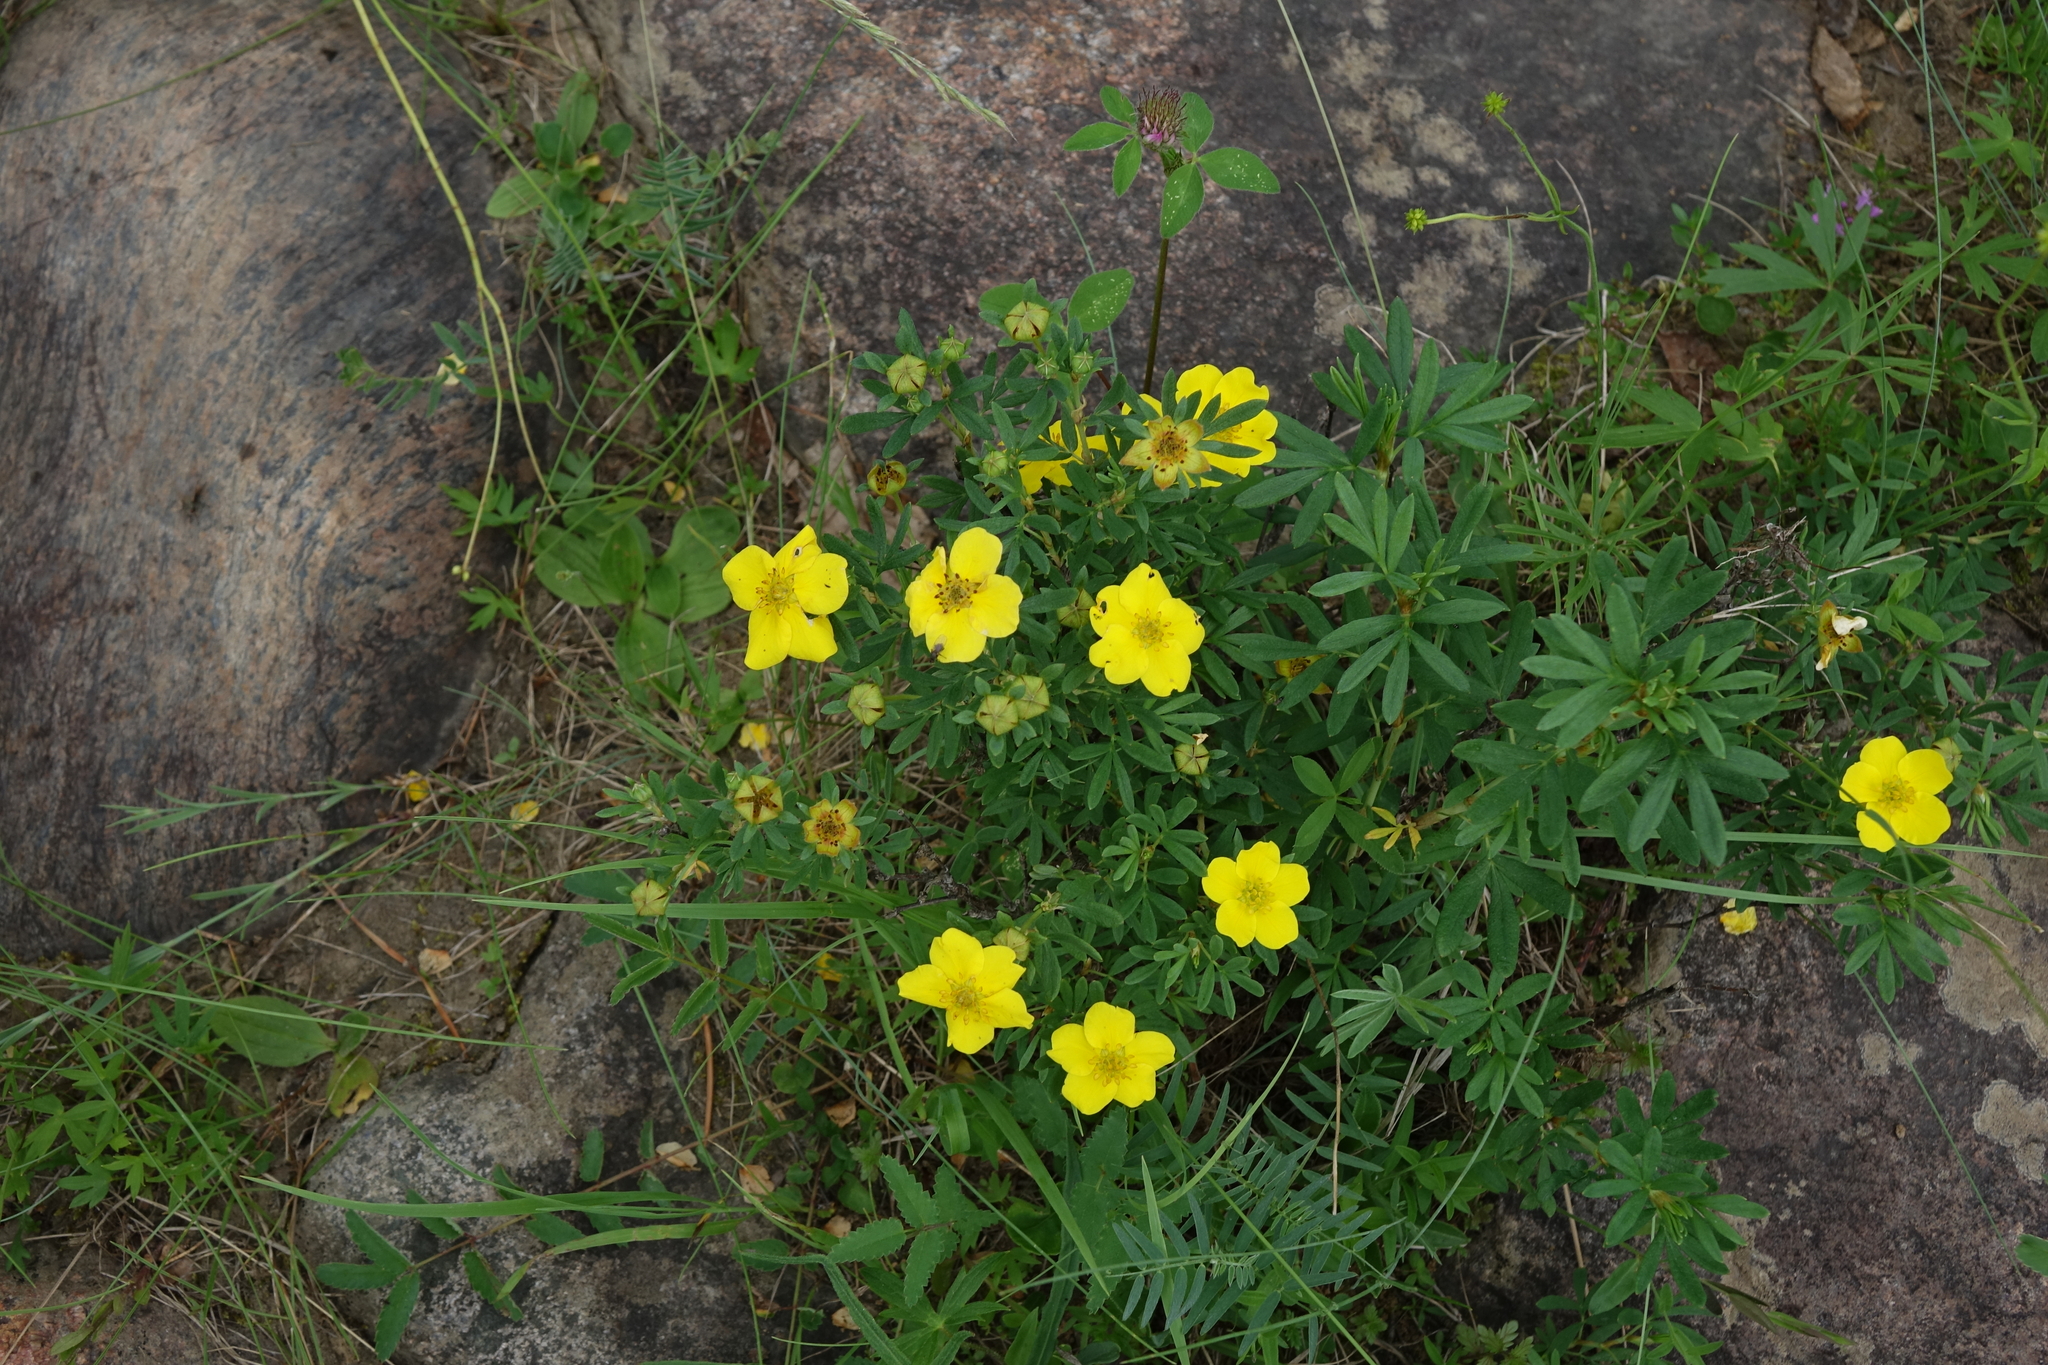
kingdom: Plantae
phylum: Tracheophyta
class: Magnoliopsida
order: Rosales
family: Rosaceae
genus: Dasiphora
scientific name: Dasiphora fruticosa
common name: Shrubby cinquefoil
